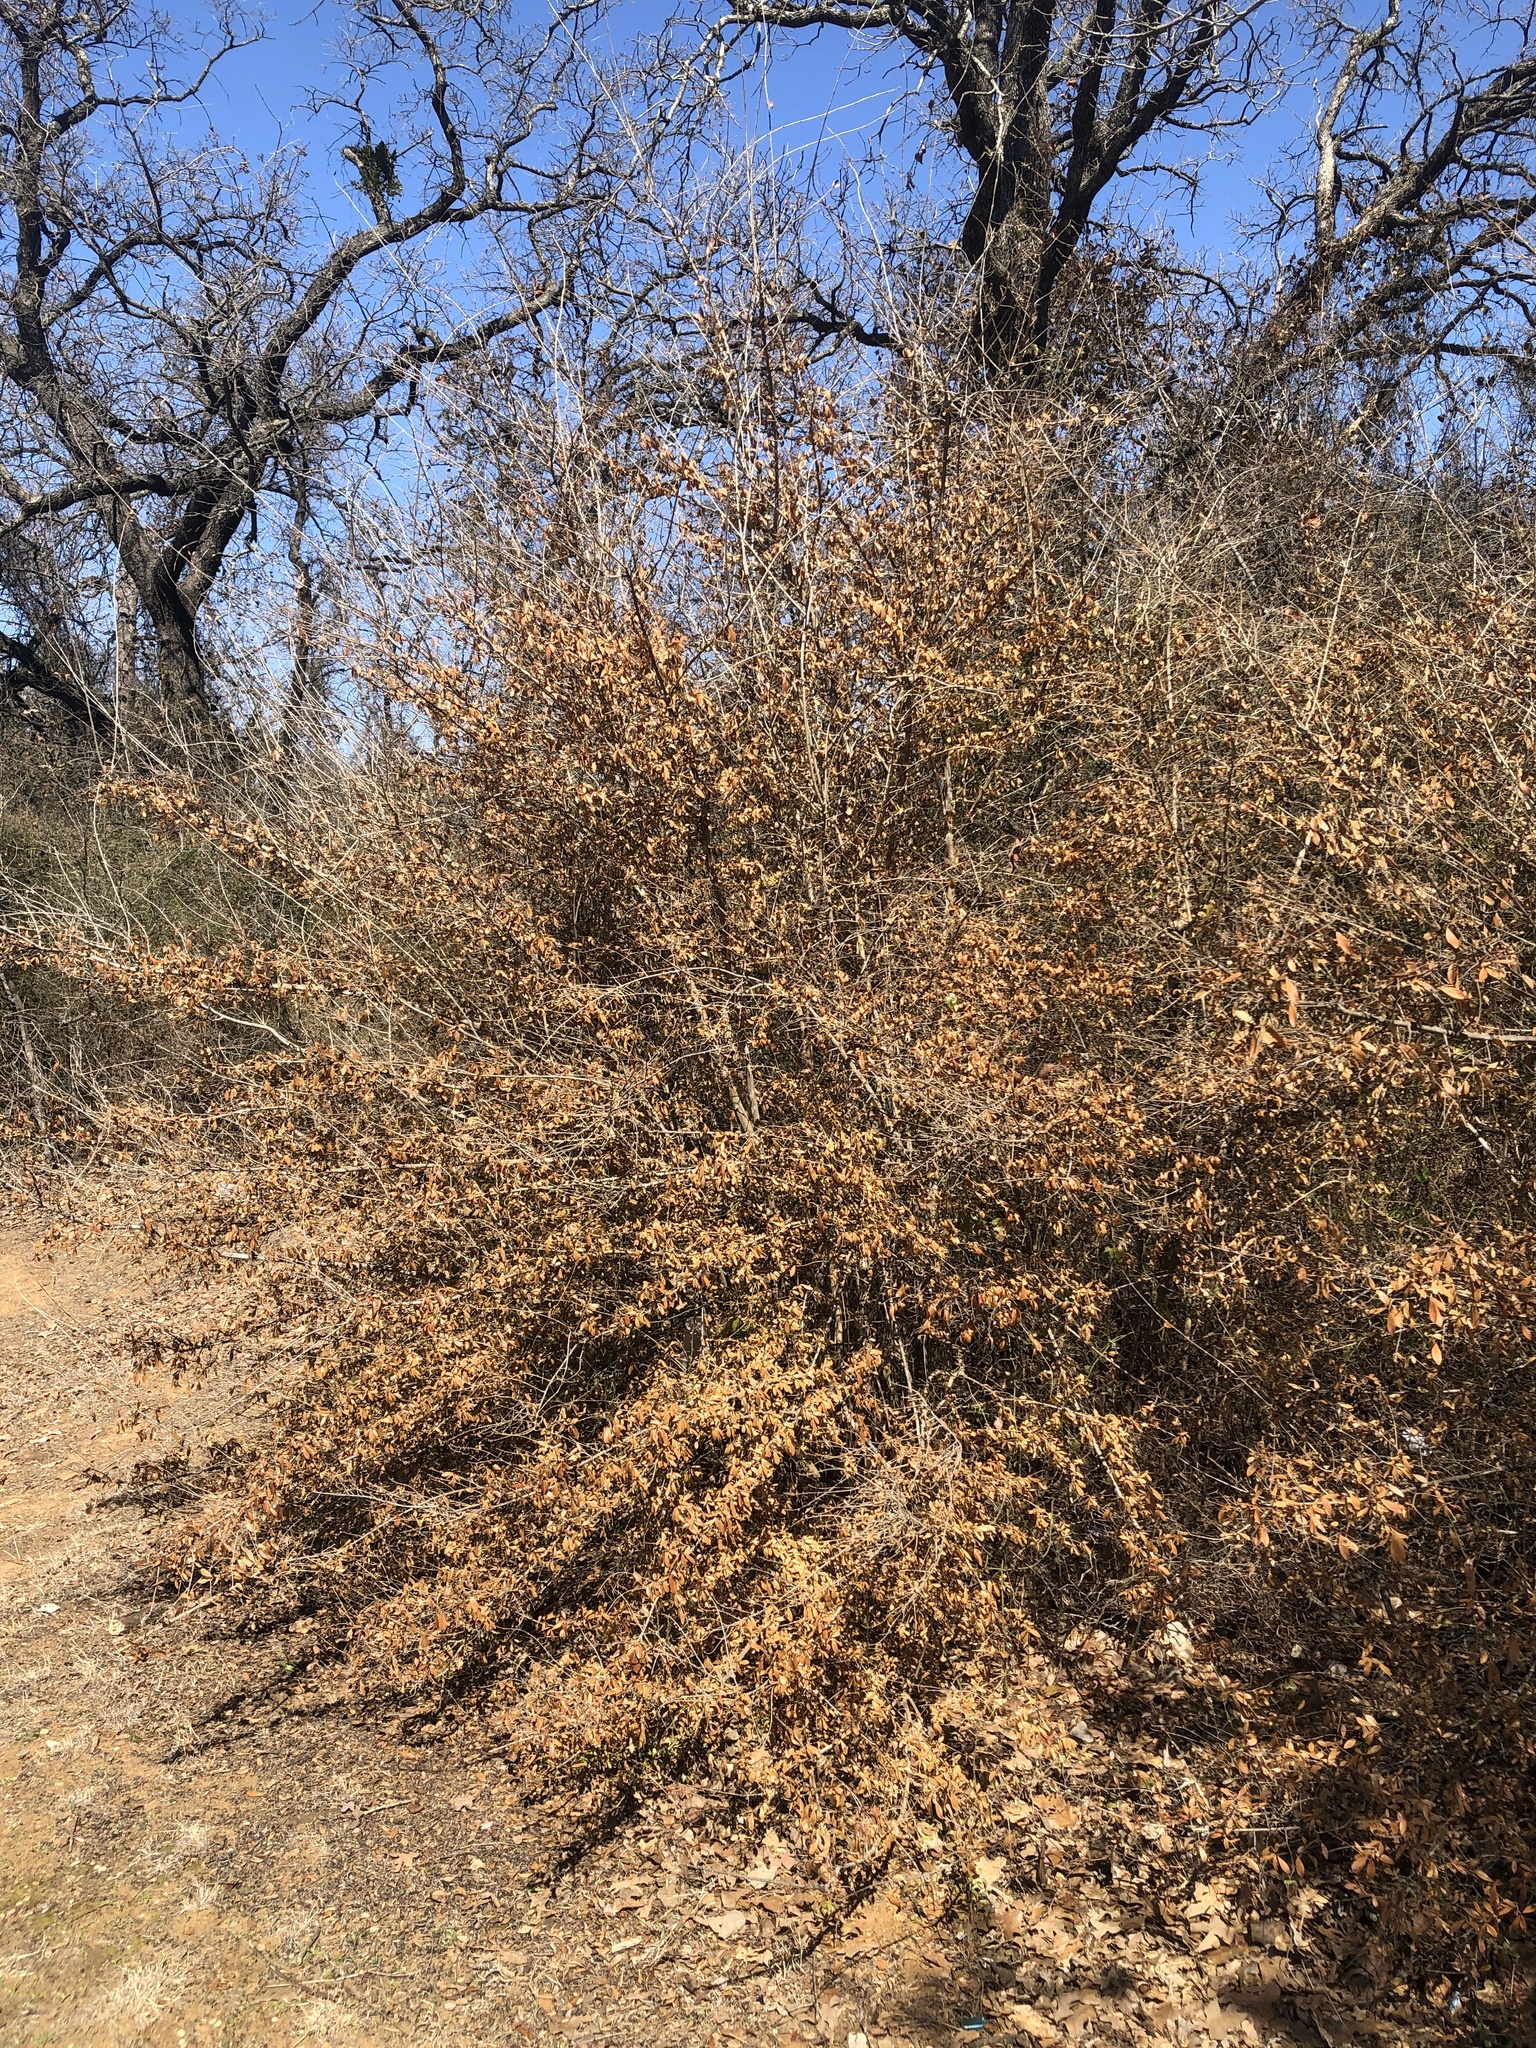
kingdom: Plantae
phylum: Tracheophyta
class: Magnoliopsida
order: Lamiales
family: Oleaceae
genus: Ligustrum
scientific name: Ligustrum quihoui
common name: Waxyleaf privet
